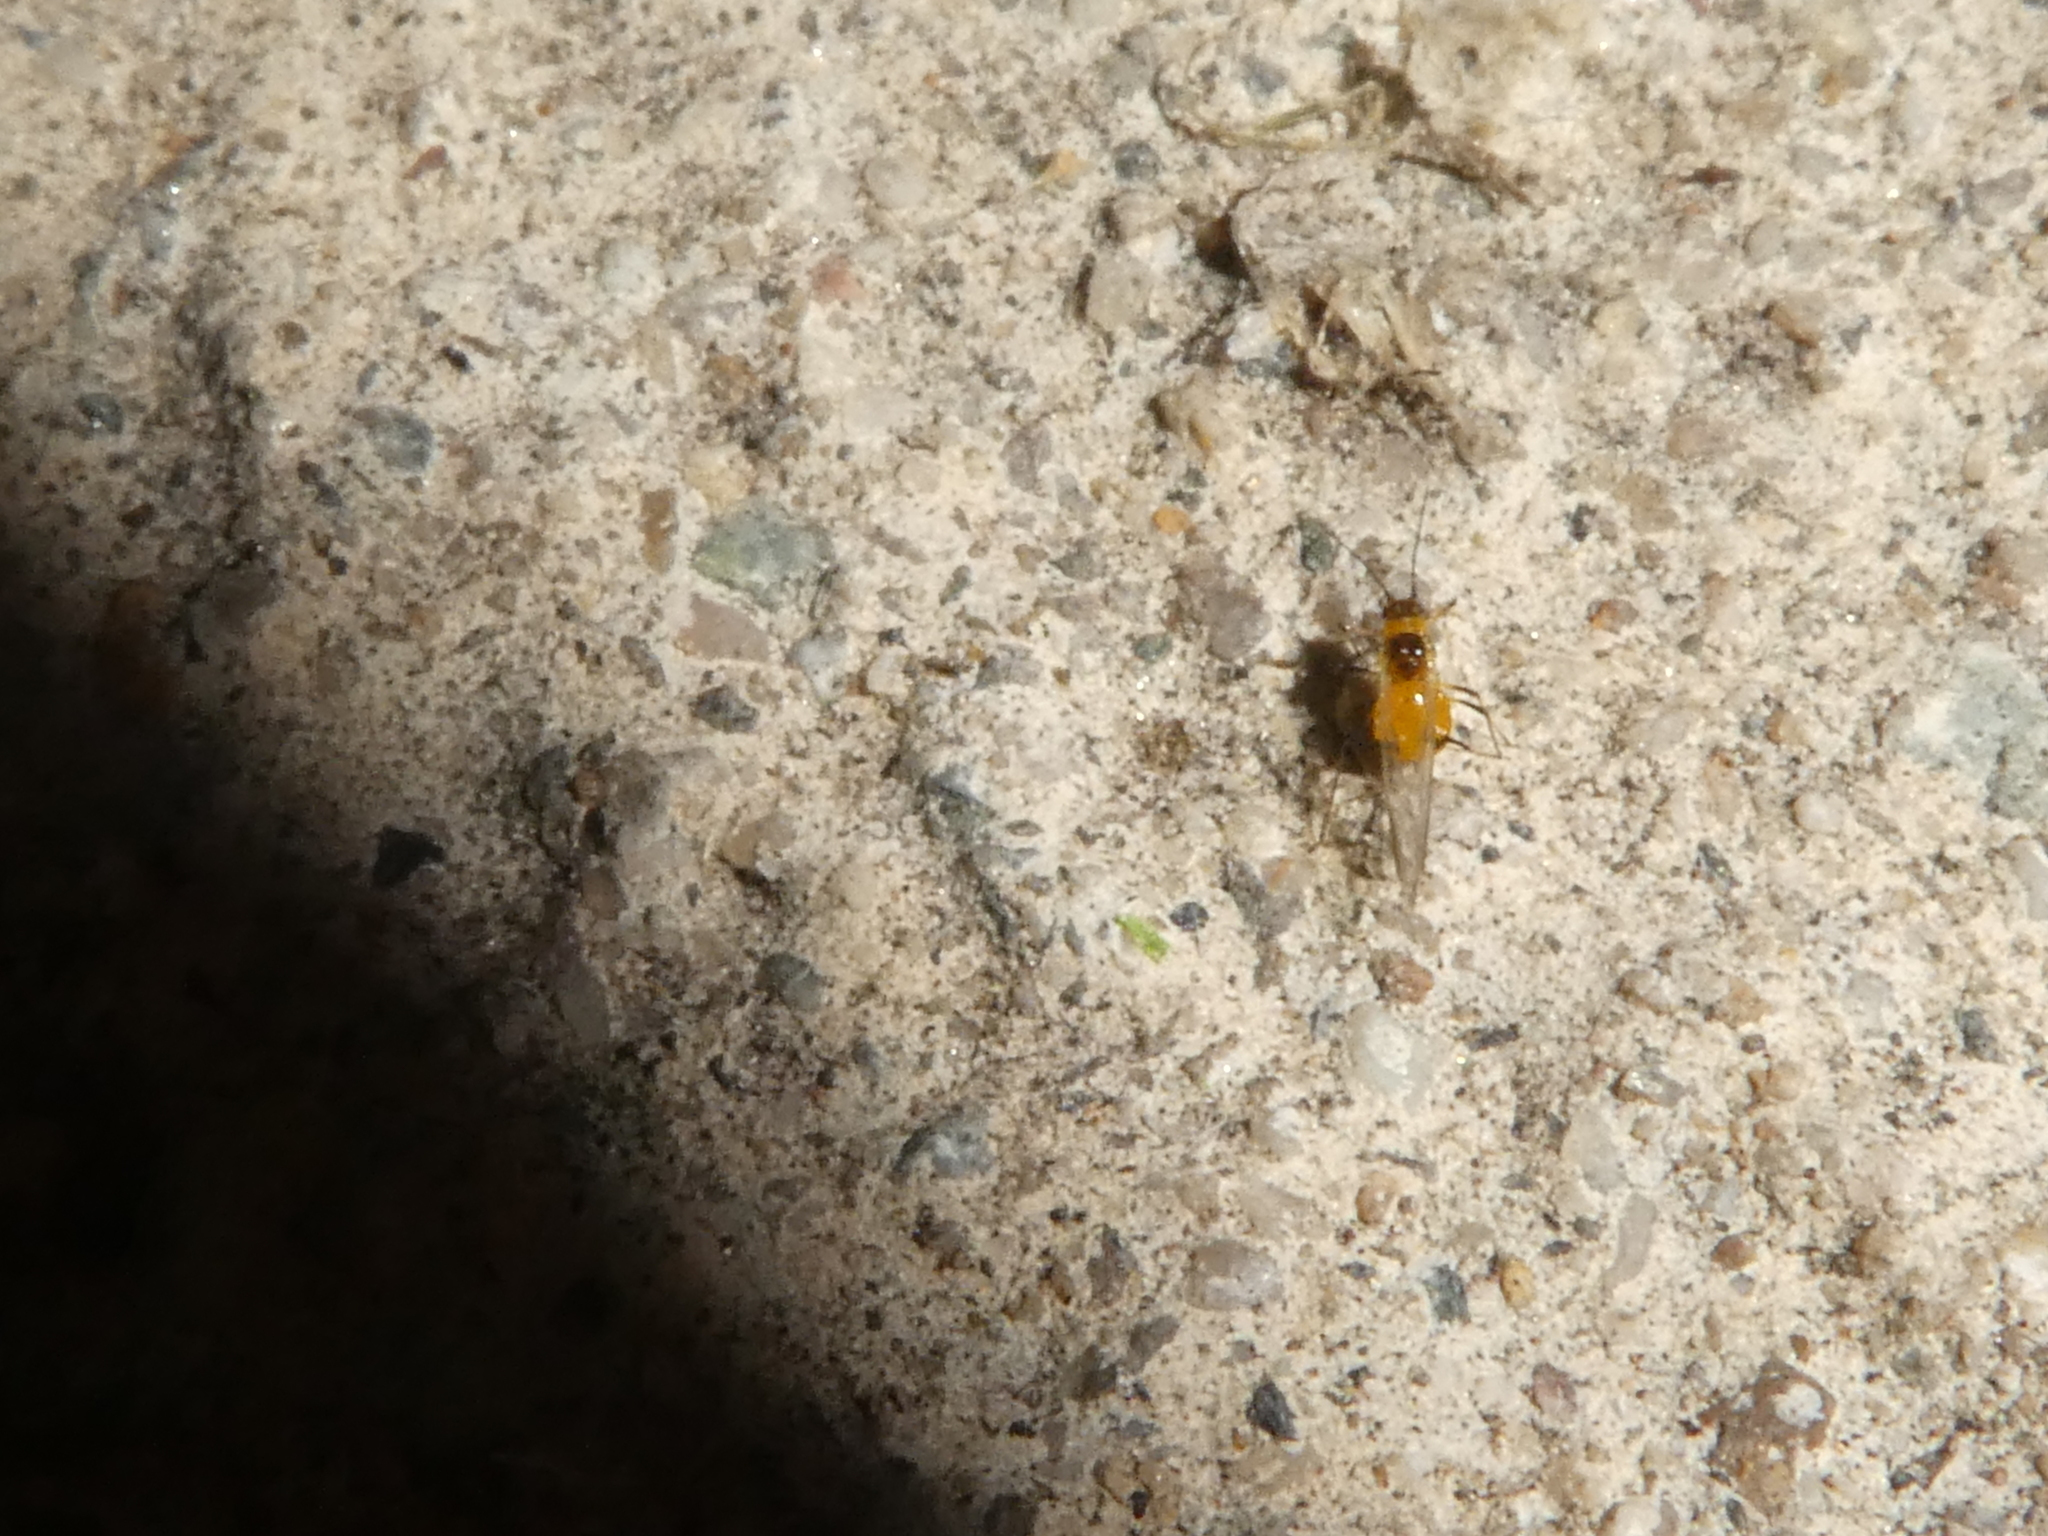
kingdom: Animalia
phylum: Arthropoda
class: Insecta
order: Hemiptera
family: Aphididae
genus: Aphis
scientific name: Aphis nerii
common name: Oleander aphid
